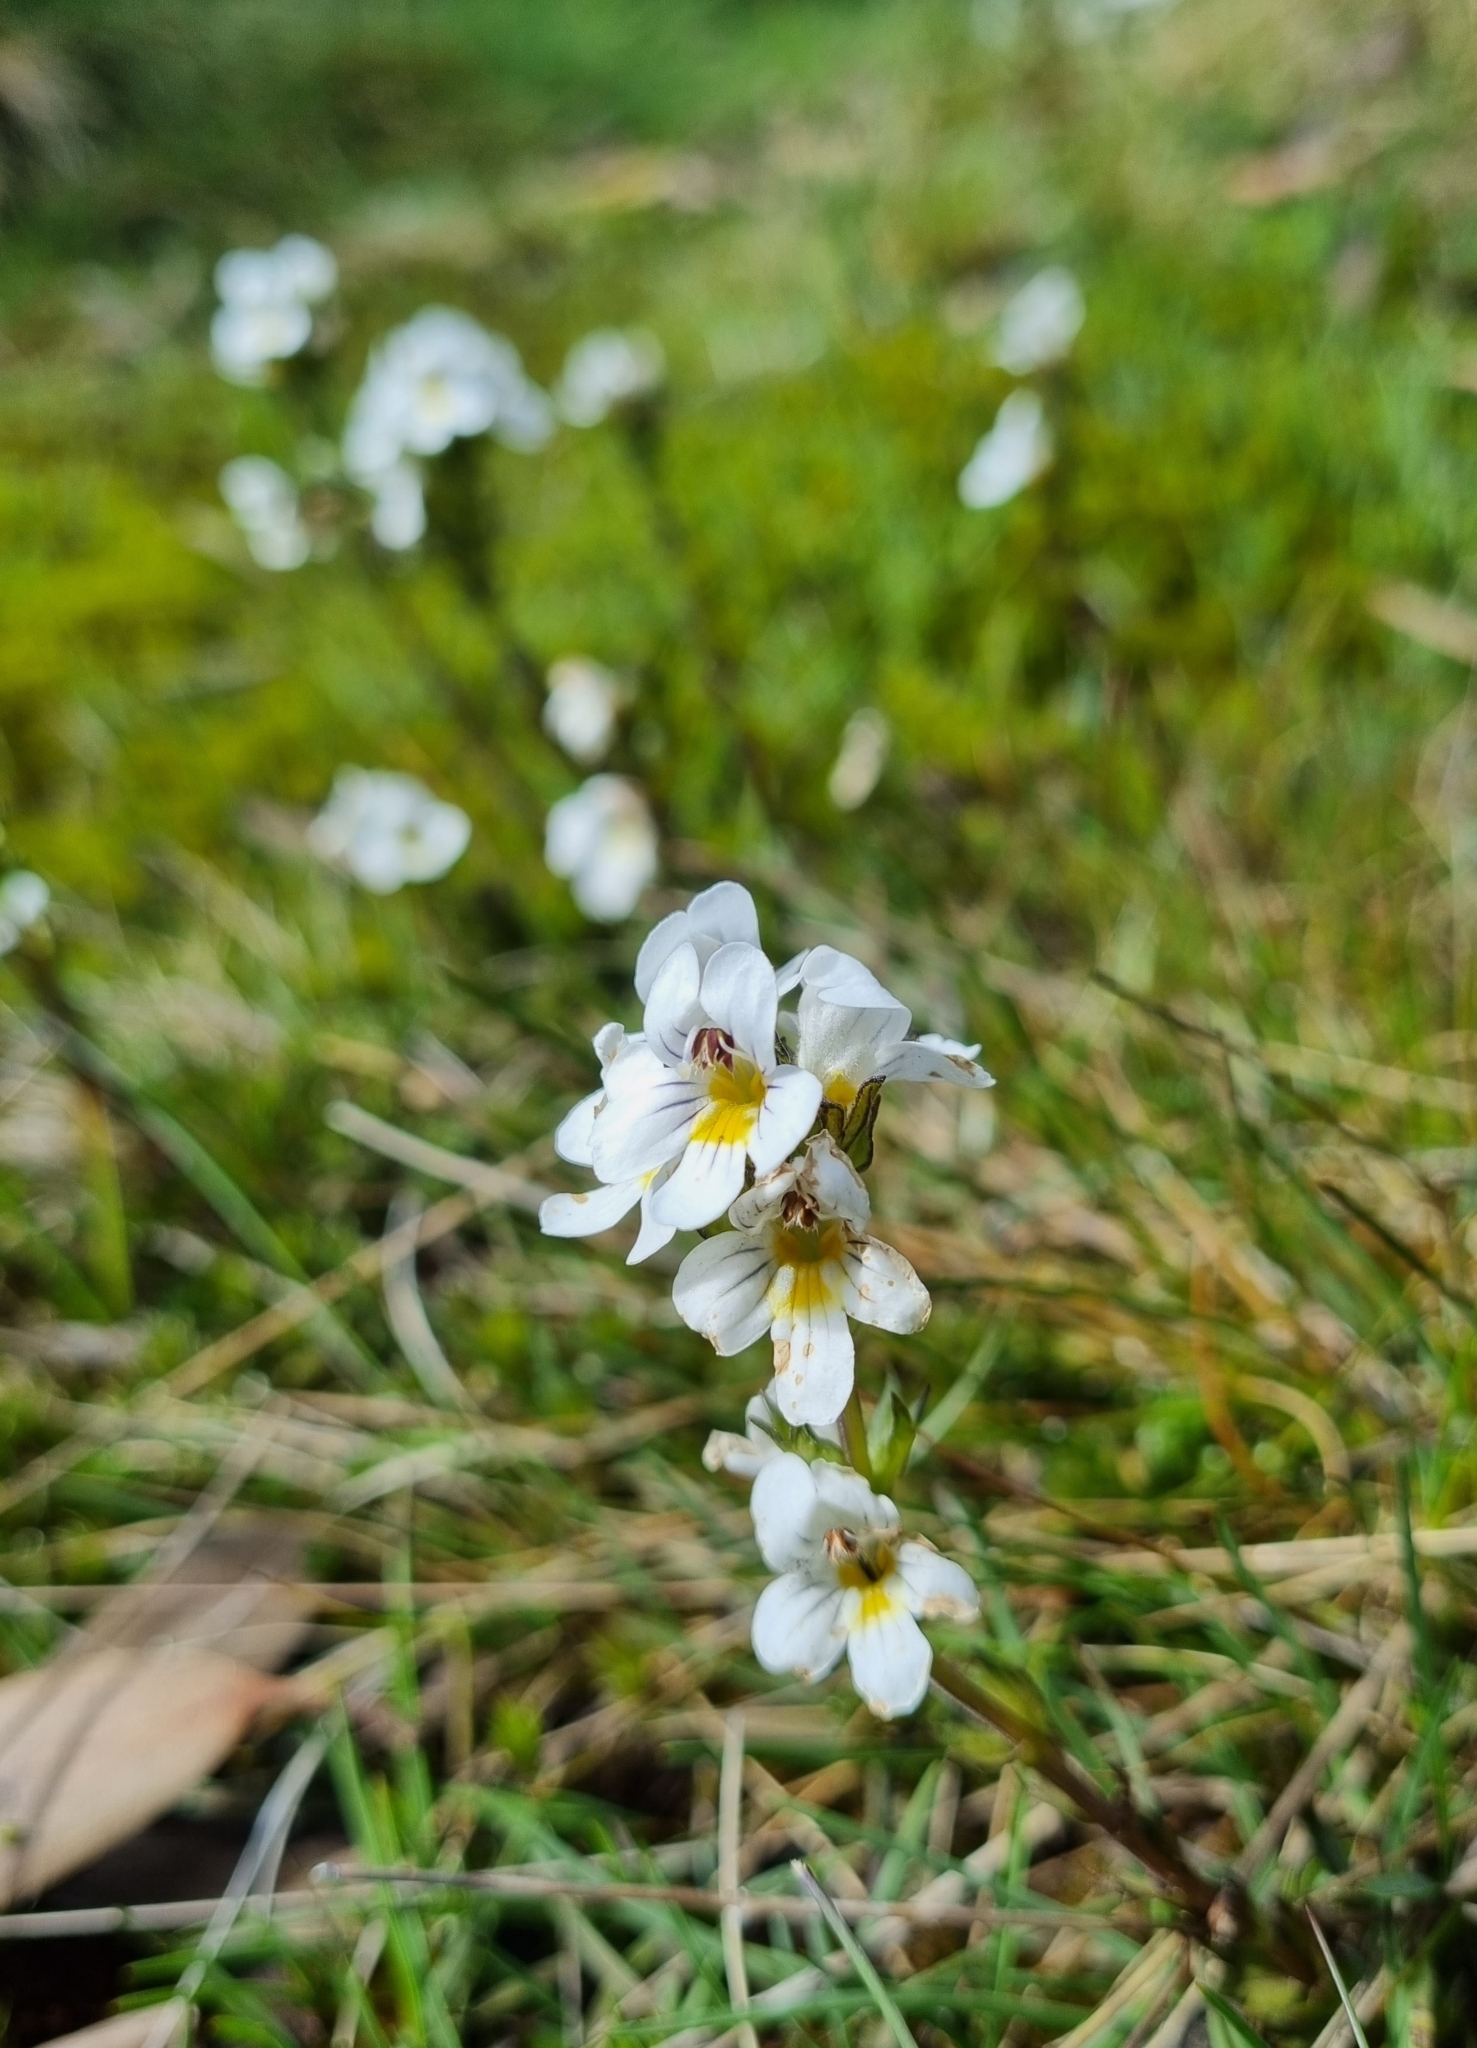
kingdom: Plantae
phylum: Tracheophyta
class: Magnoliopsida
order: Lamiales
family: Orobanchaceae
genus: Euphrasia
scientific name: Euphrasia gibbsiae
